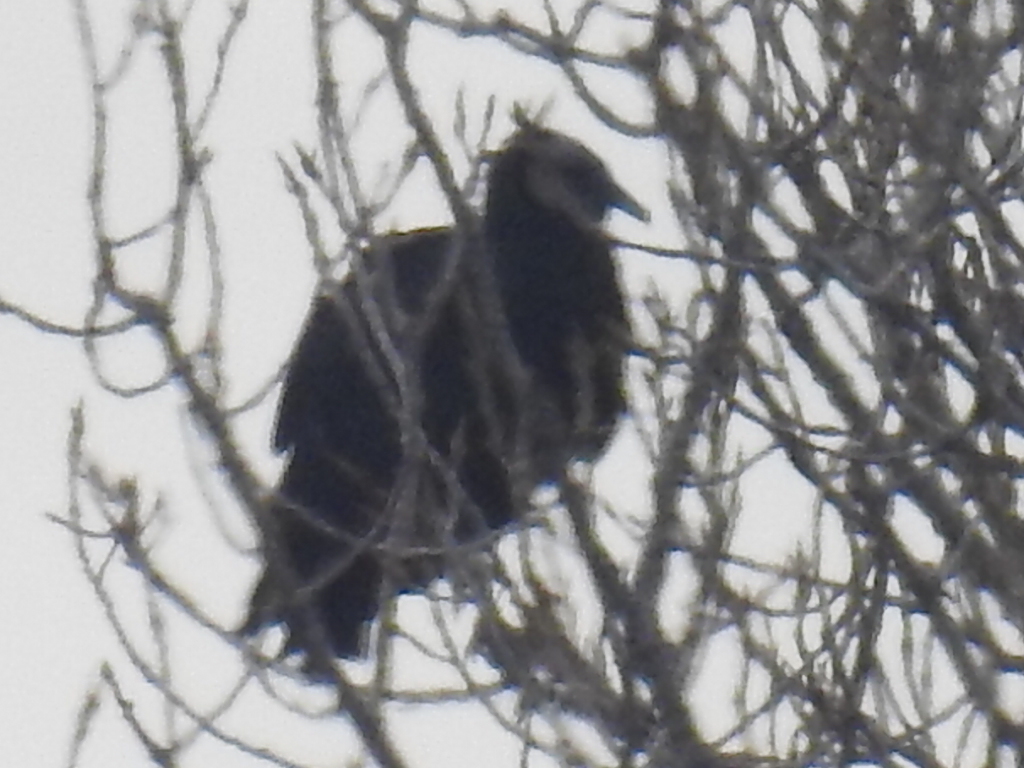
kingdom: Animalia
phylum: Chordata
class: Aves
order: Accipitriformes
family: Cathartidae
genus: Coragyps
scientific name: Coragyps atratus
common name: Black vulture
